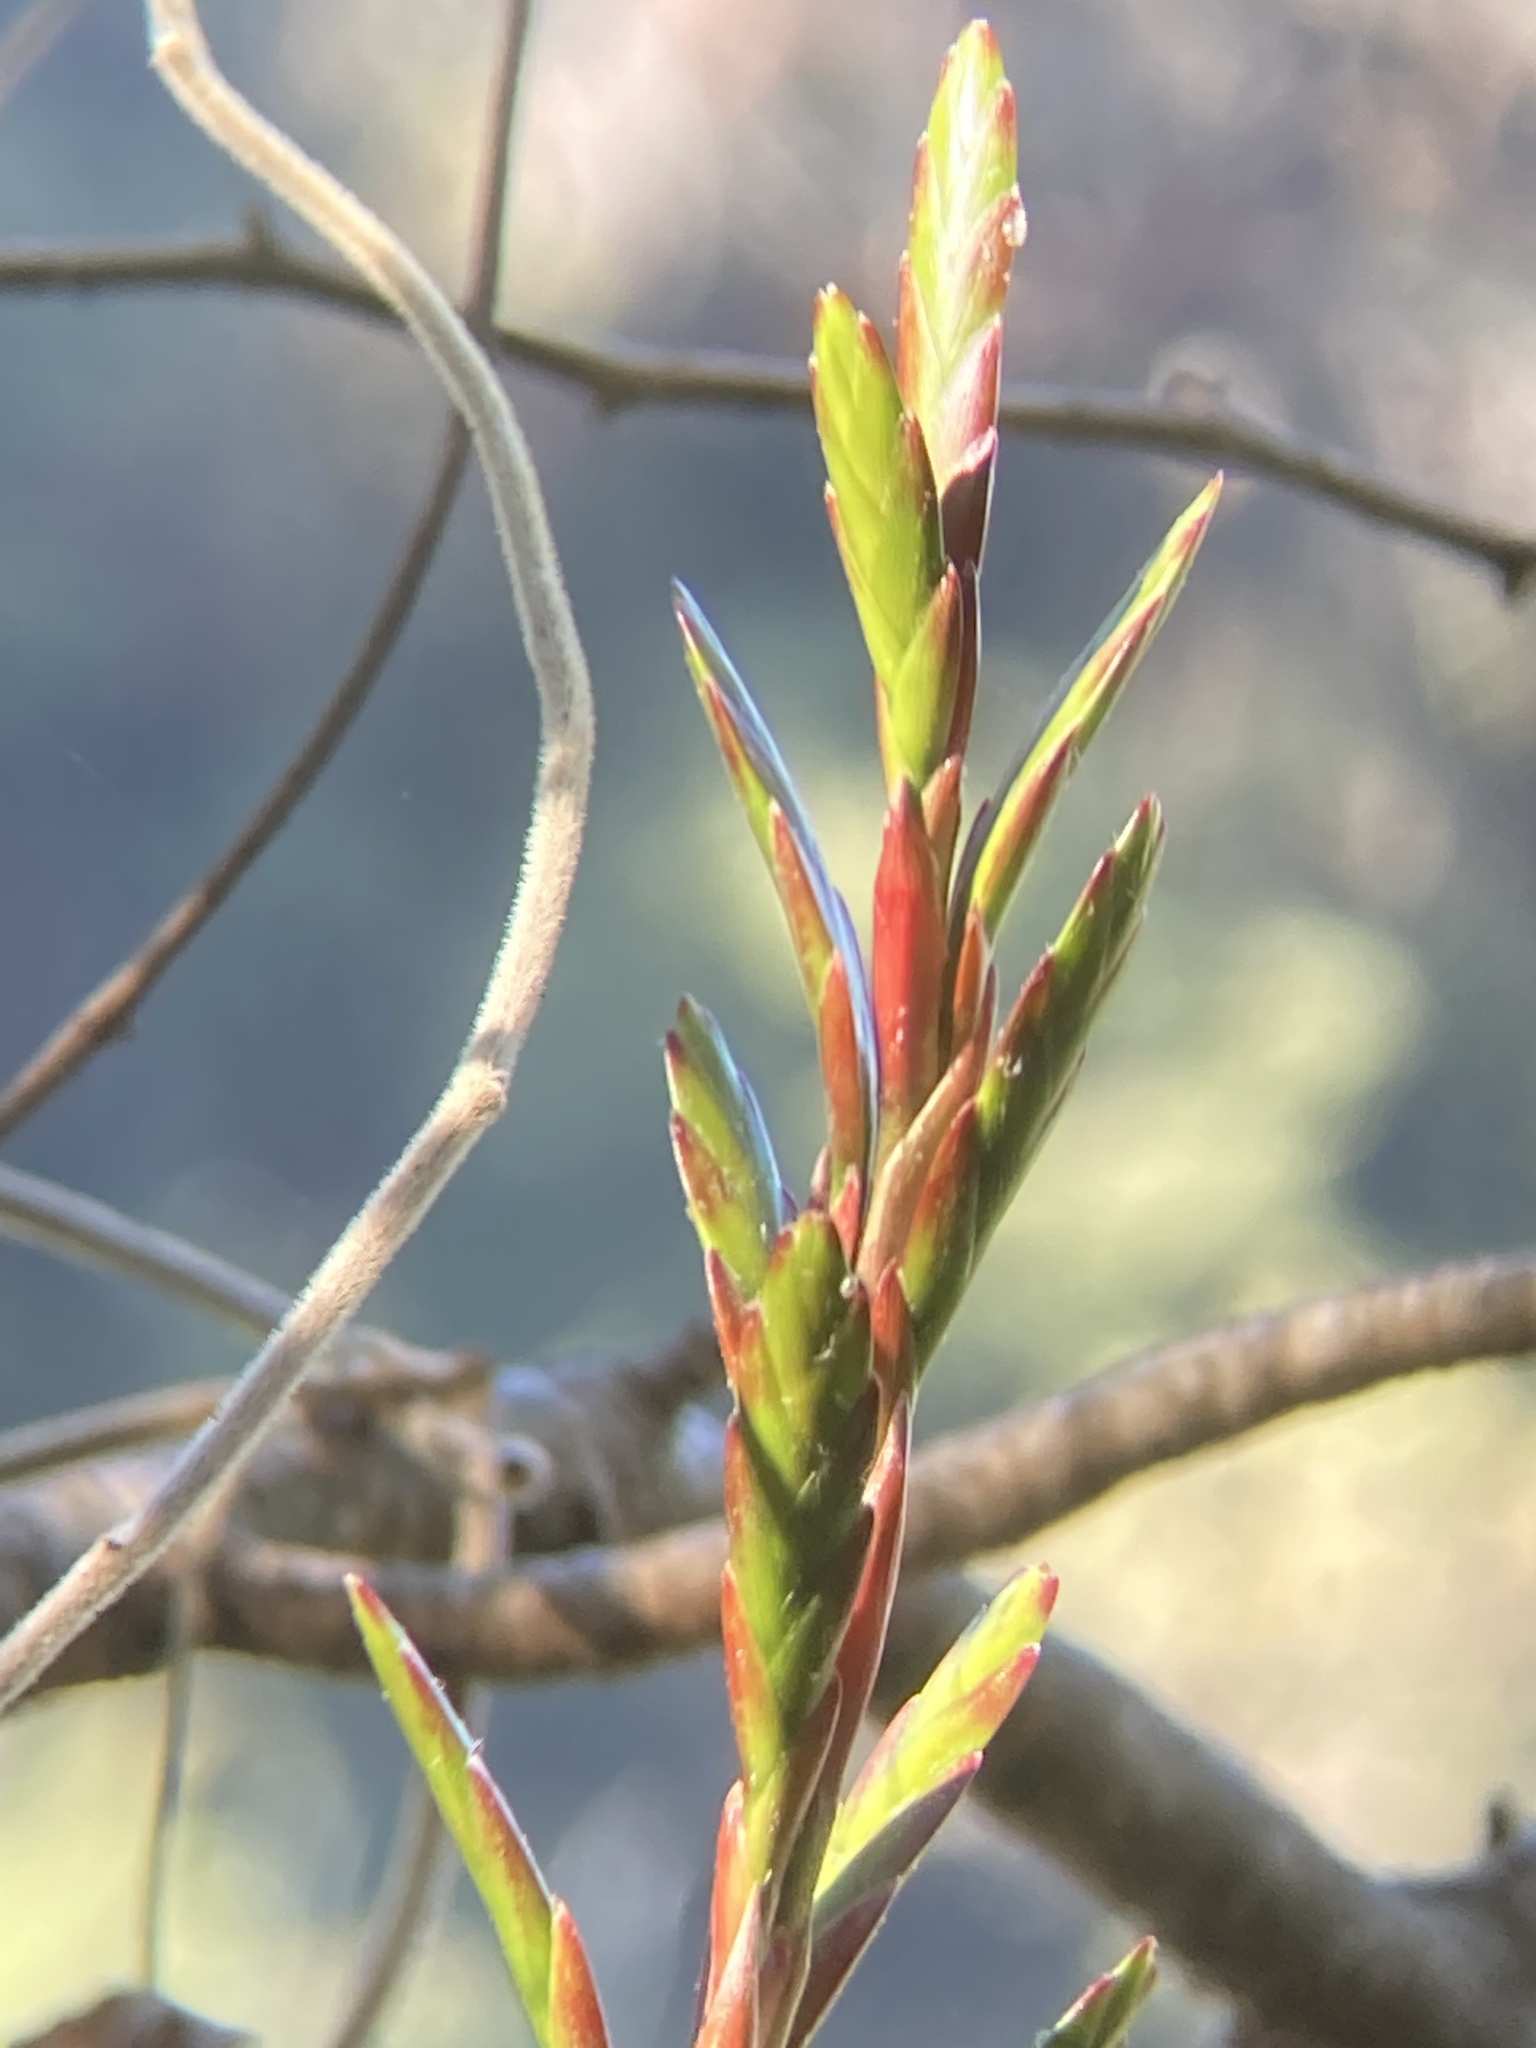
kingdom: Plantae
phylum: Tracheophyta
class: Liliopsida
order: Poales
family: Bromeliaceae
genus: Tillandsia
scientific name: Tillandsia rodrigueziana
